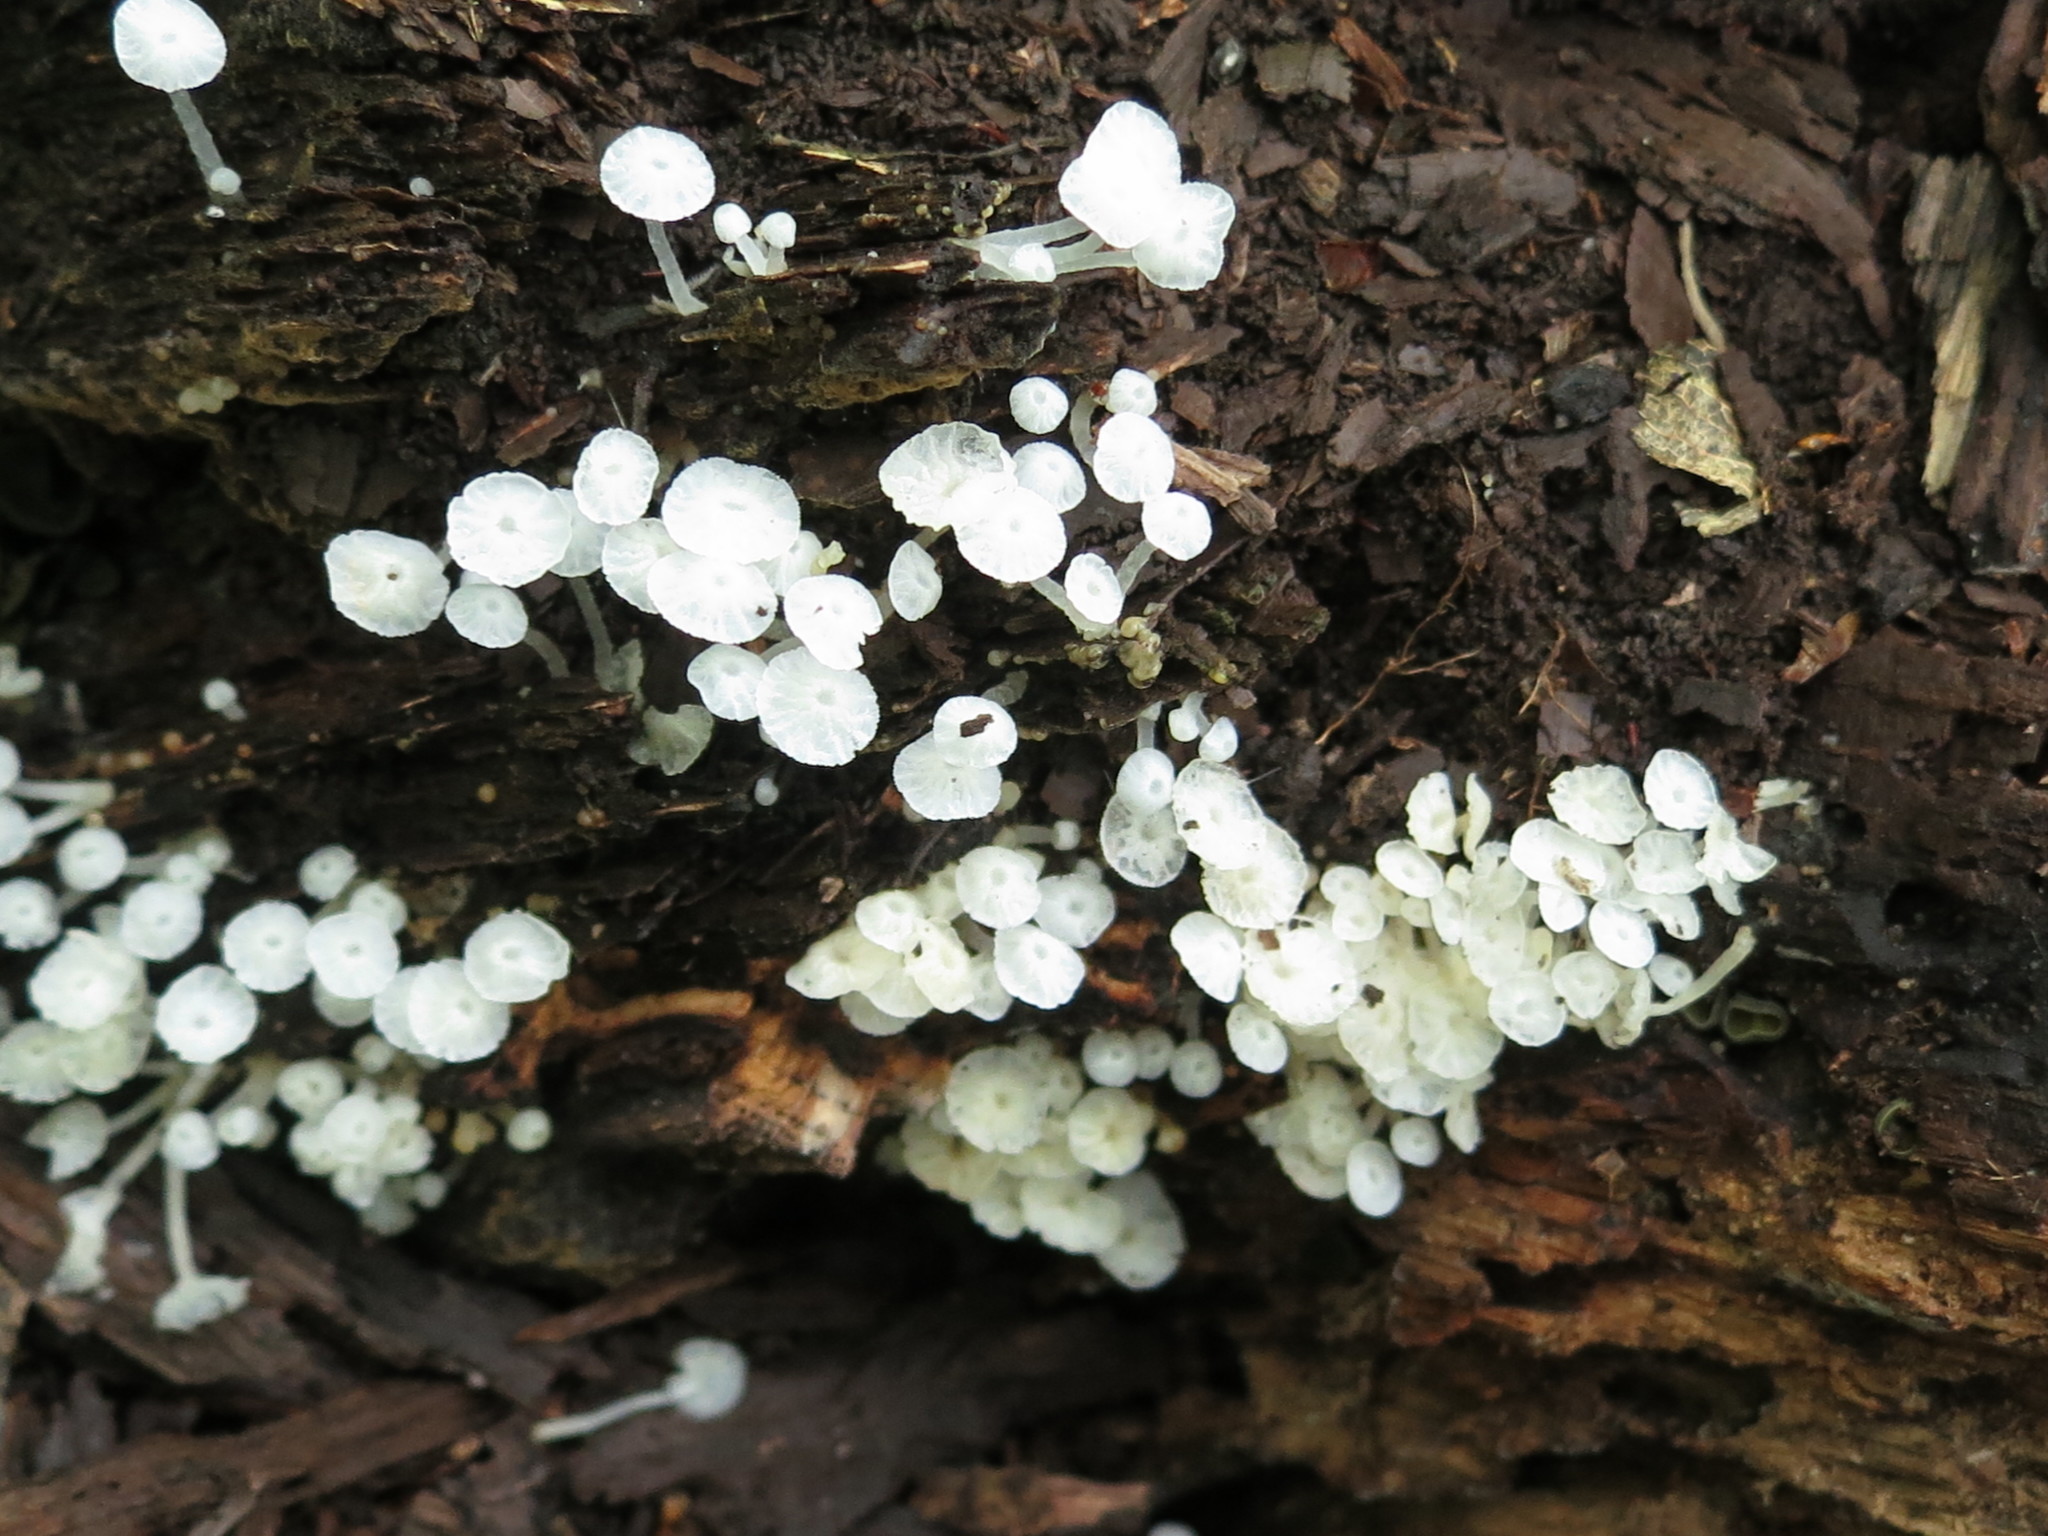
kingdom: Fungi
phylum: Basidiomycota
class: Agaricomycetes
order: Agaricales
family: Tricholomataceae
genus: Delicatula
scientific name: Delicatula integrella
